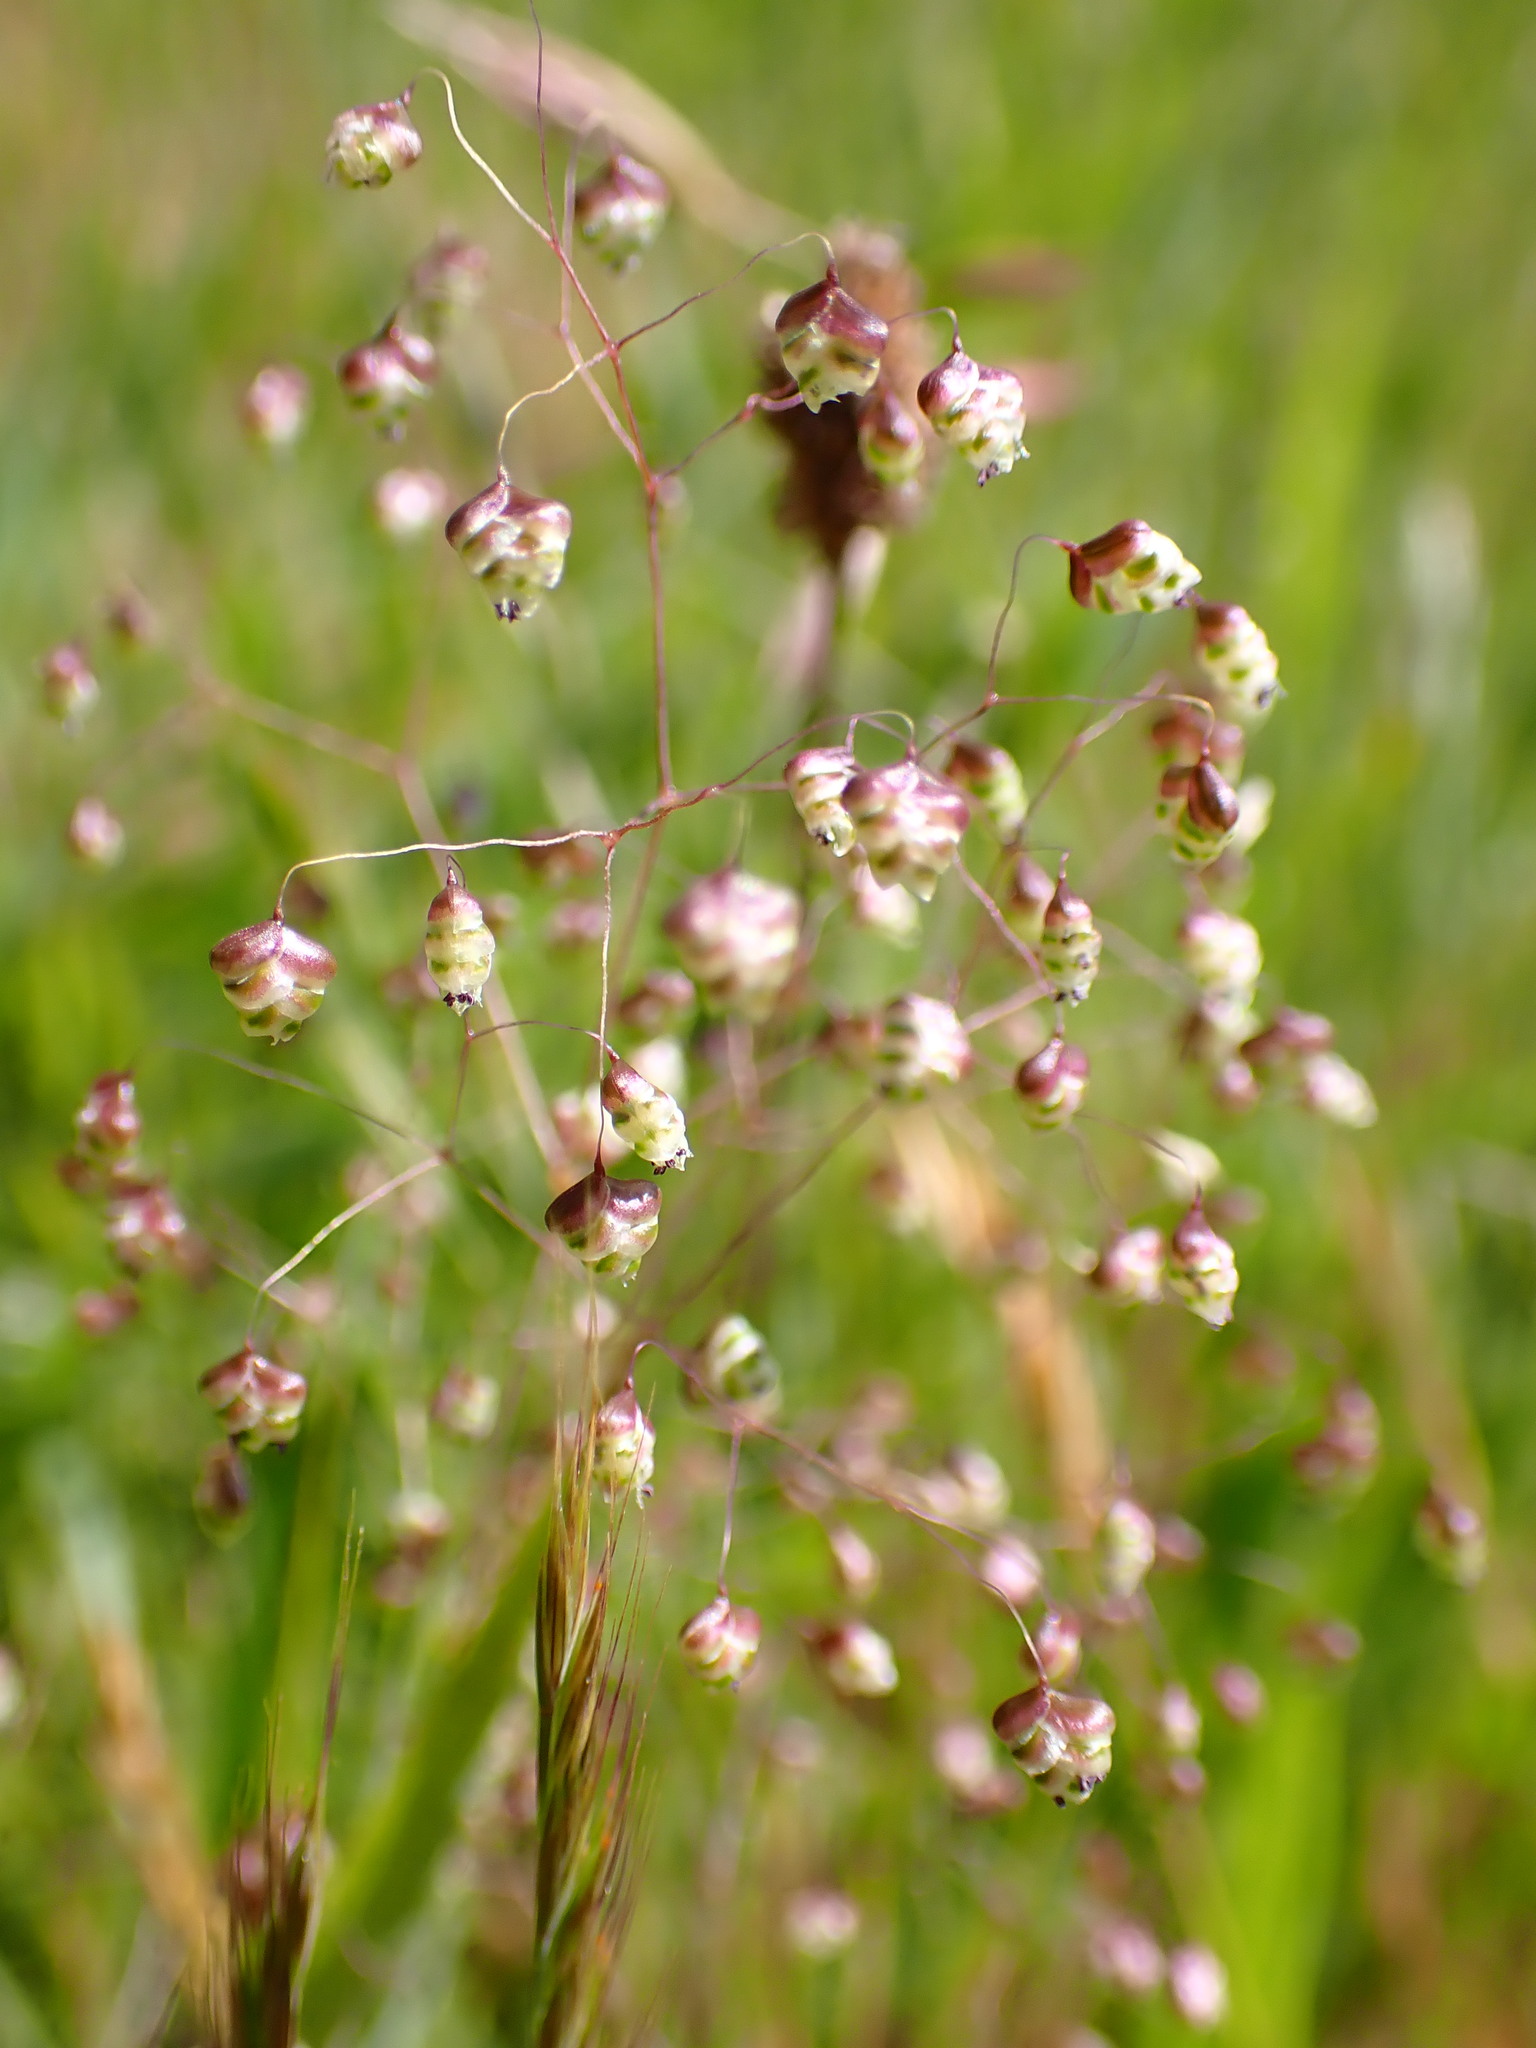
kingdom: Plantae
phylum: Tracheophyta
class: Liliopsida
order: Poales
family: Poaceae
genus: Briza
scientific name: Briza minor
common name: Lesser quaking-grass
